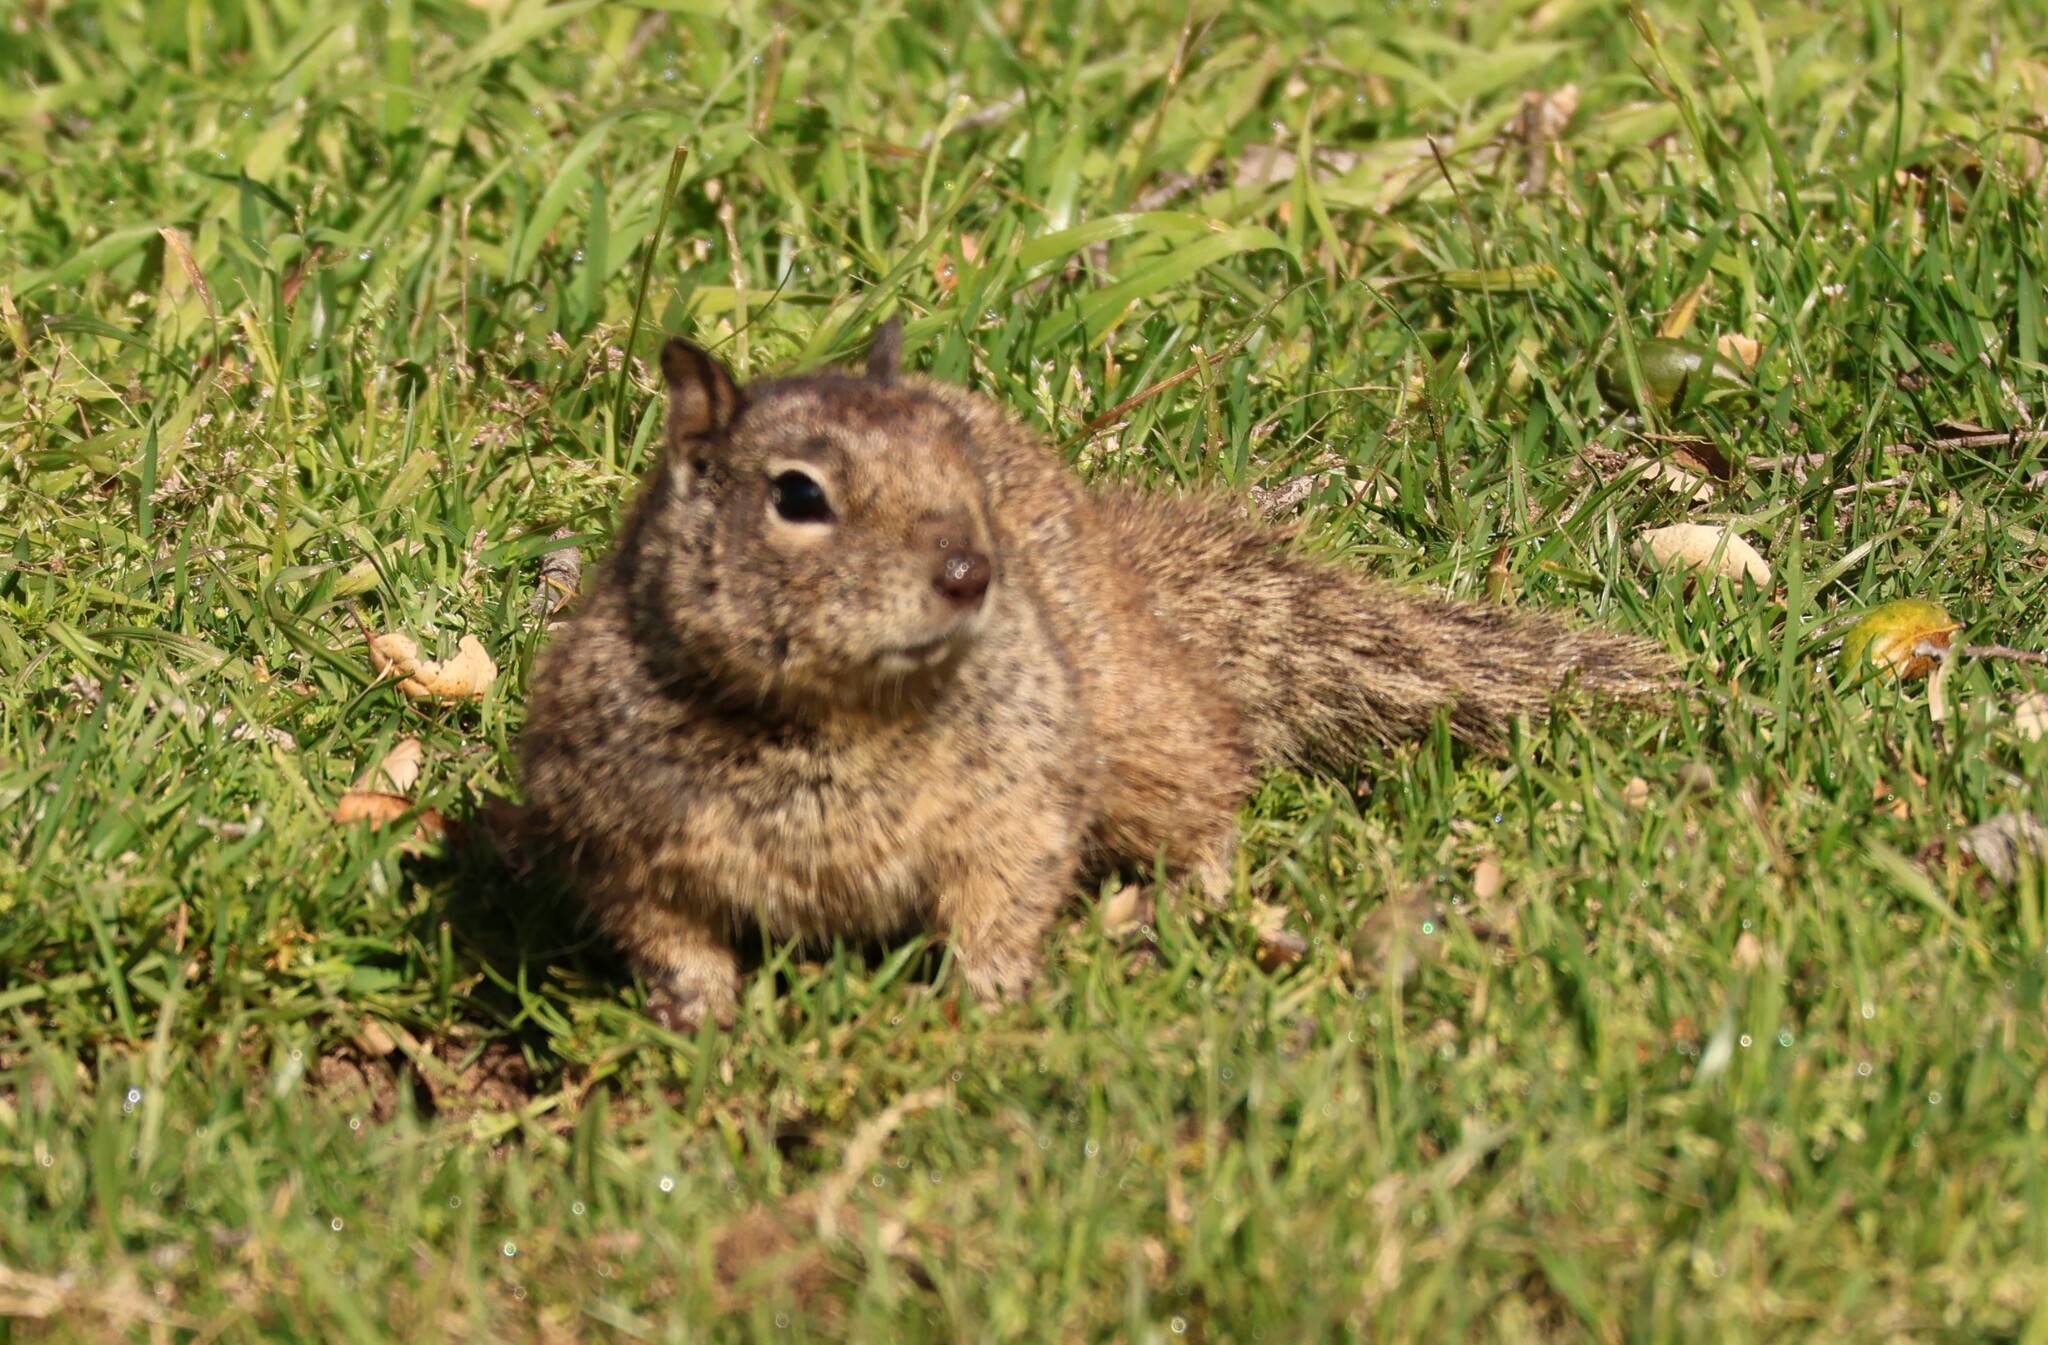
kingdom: Animalia
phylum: Chordata
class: Mammalia
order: Rodentia
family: Sciuridae
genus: Otospermophilus
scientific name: Otospermophilus beecheyi
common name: California ground squirrel
